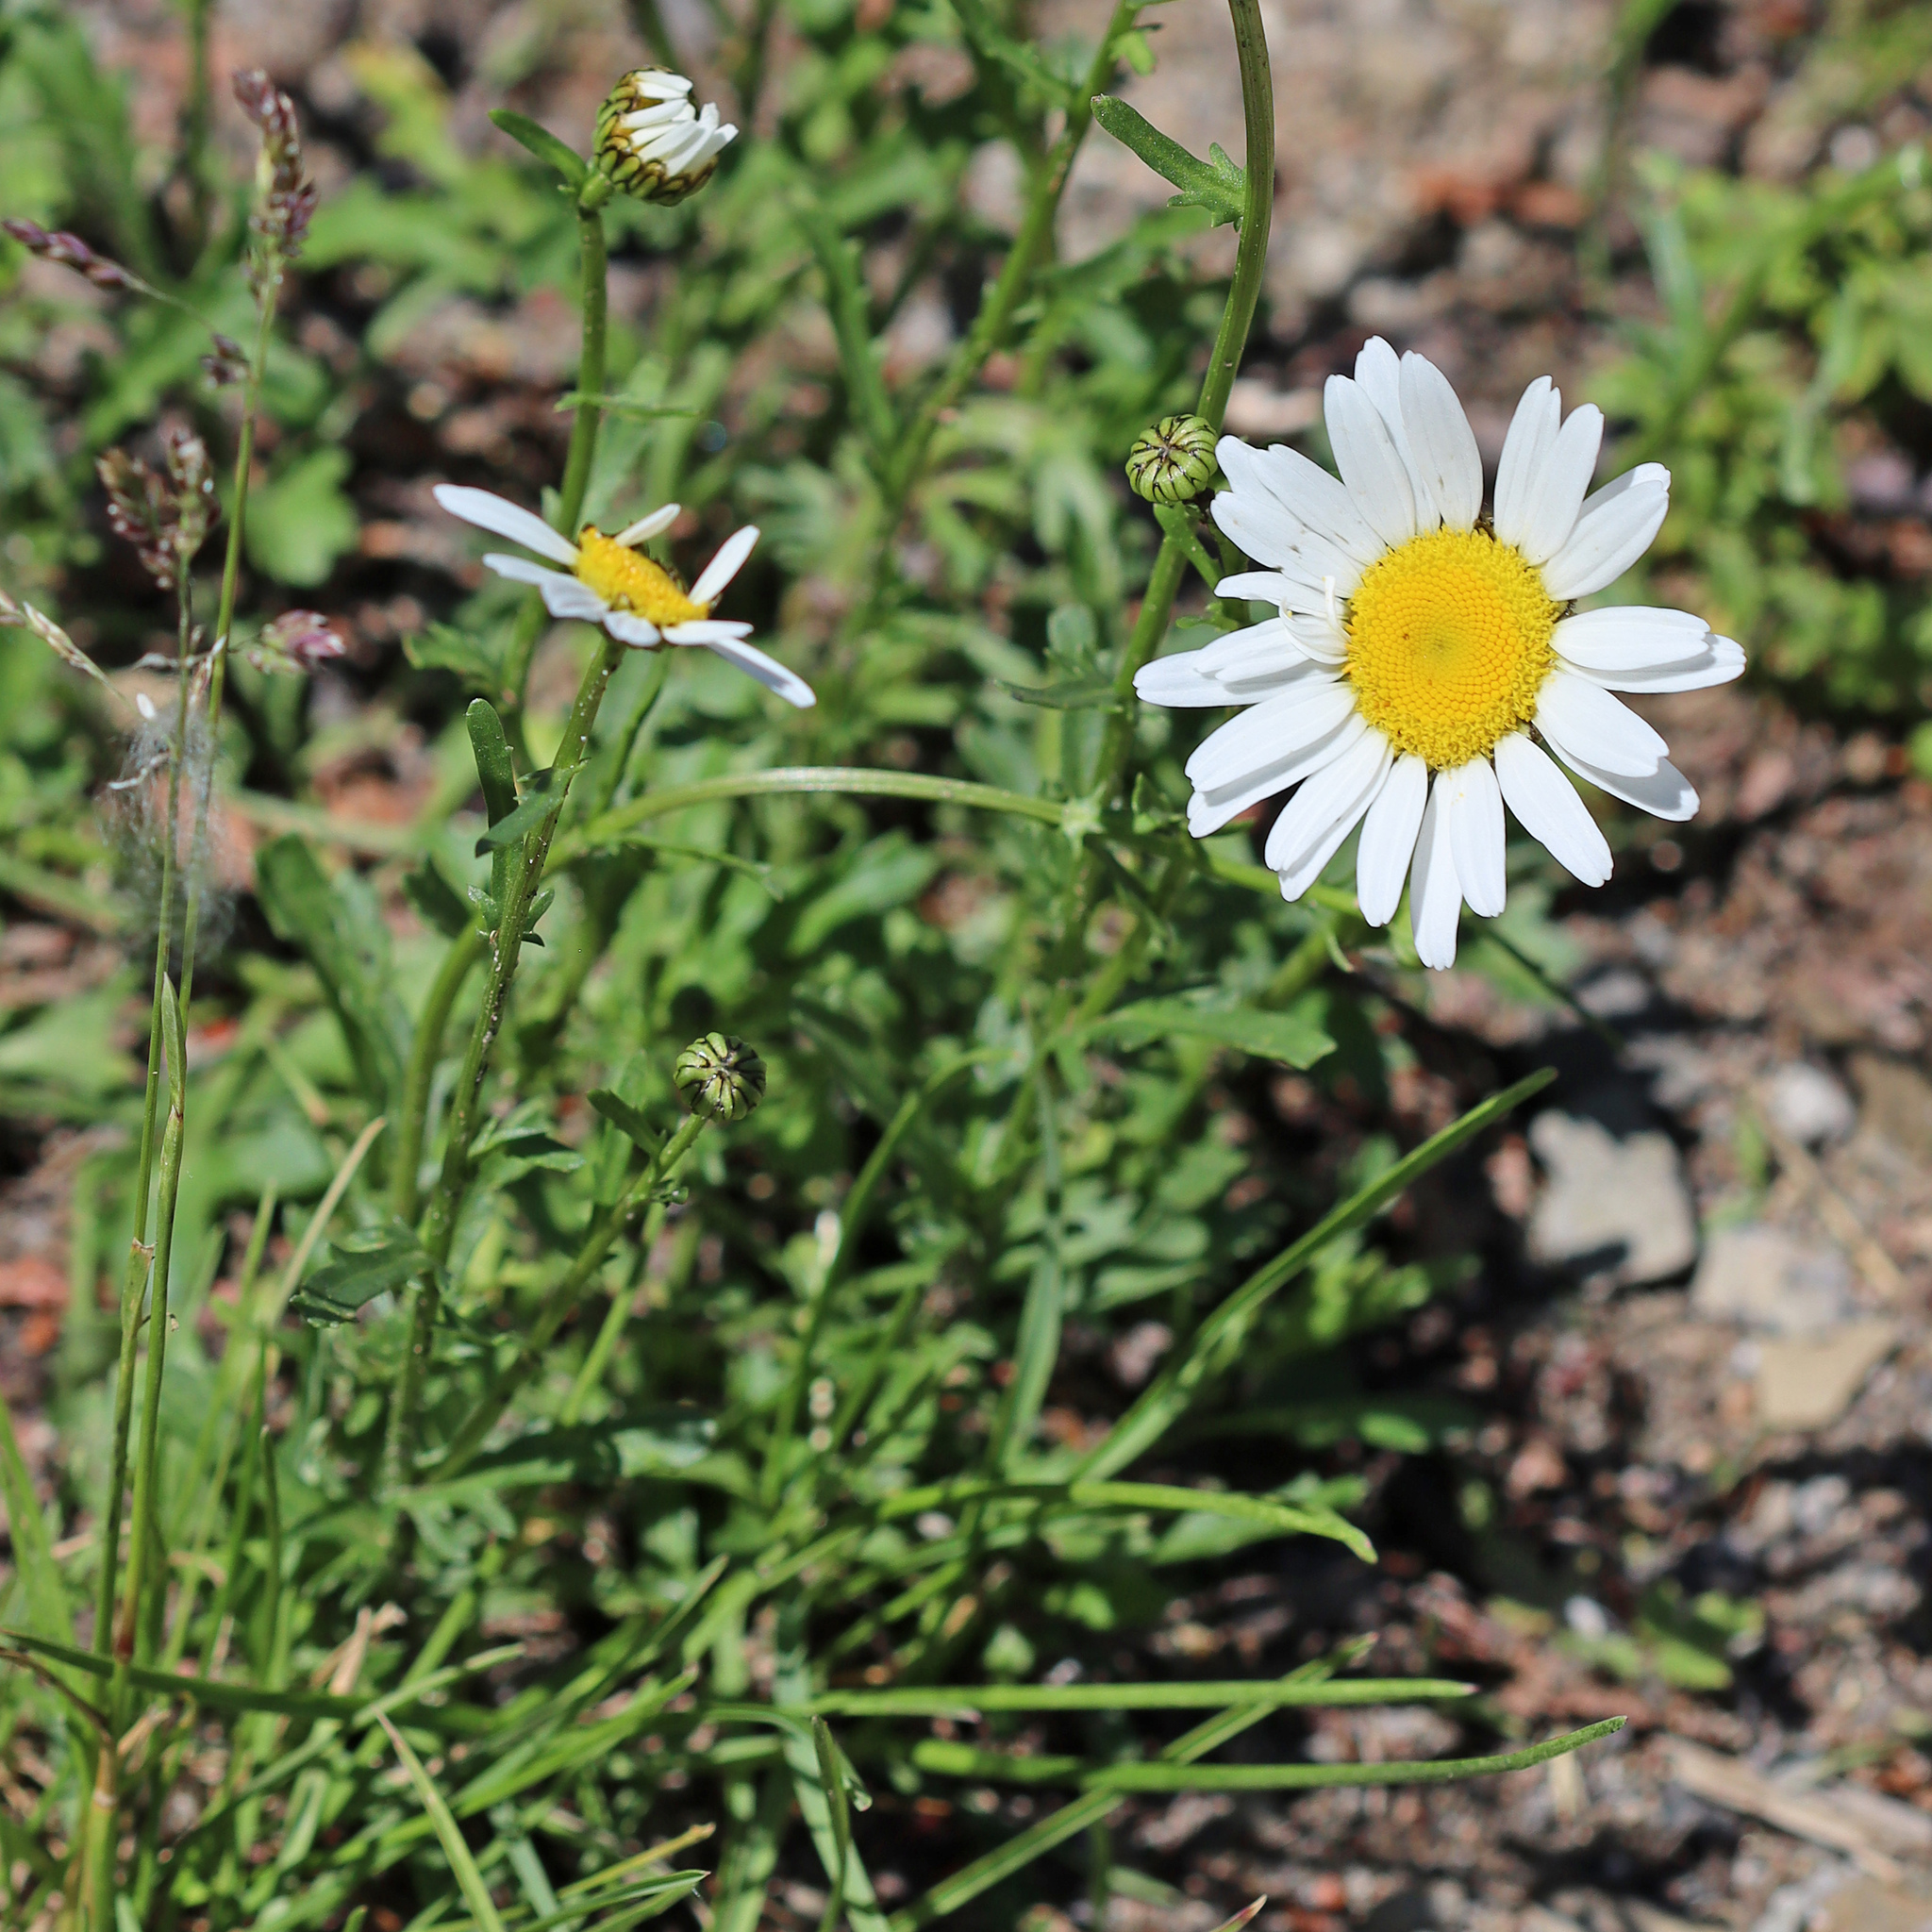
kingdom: Plantae
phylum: Tracheophyta
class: Magnoliopsida
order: Asterales
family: Asteraceae
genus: Leucanthemum
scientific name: Leucanthemum vulgare
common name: Oxeye daisy
